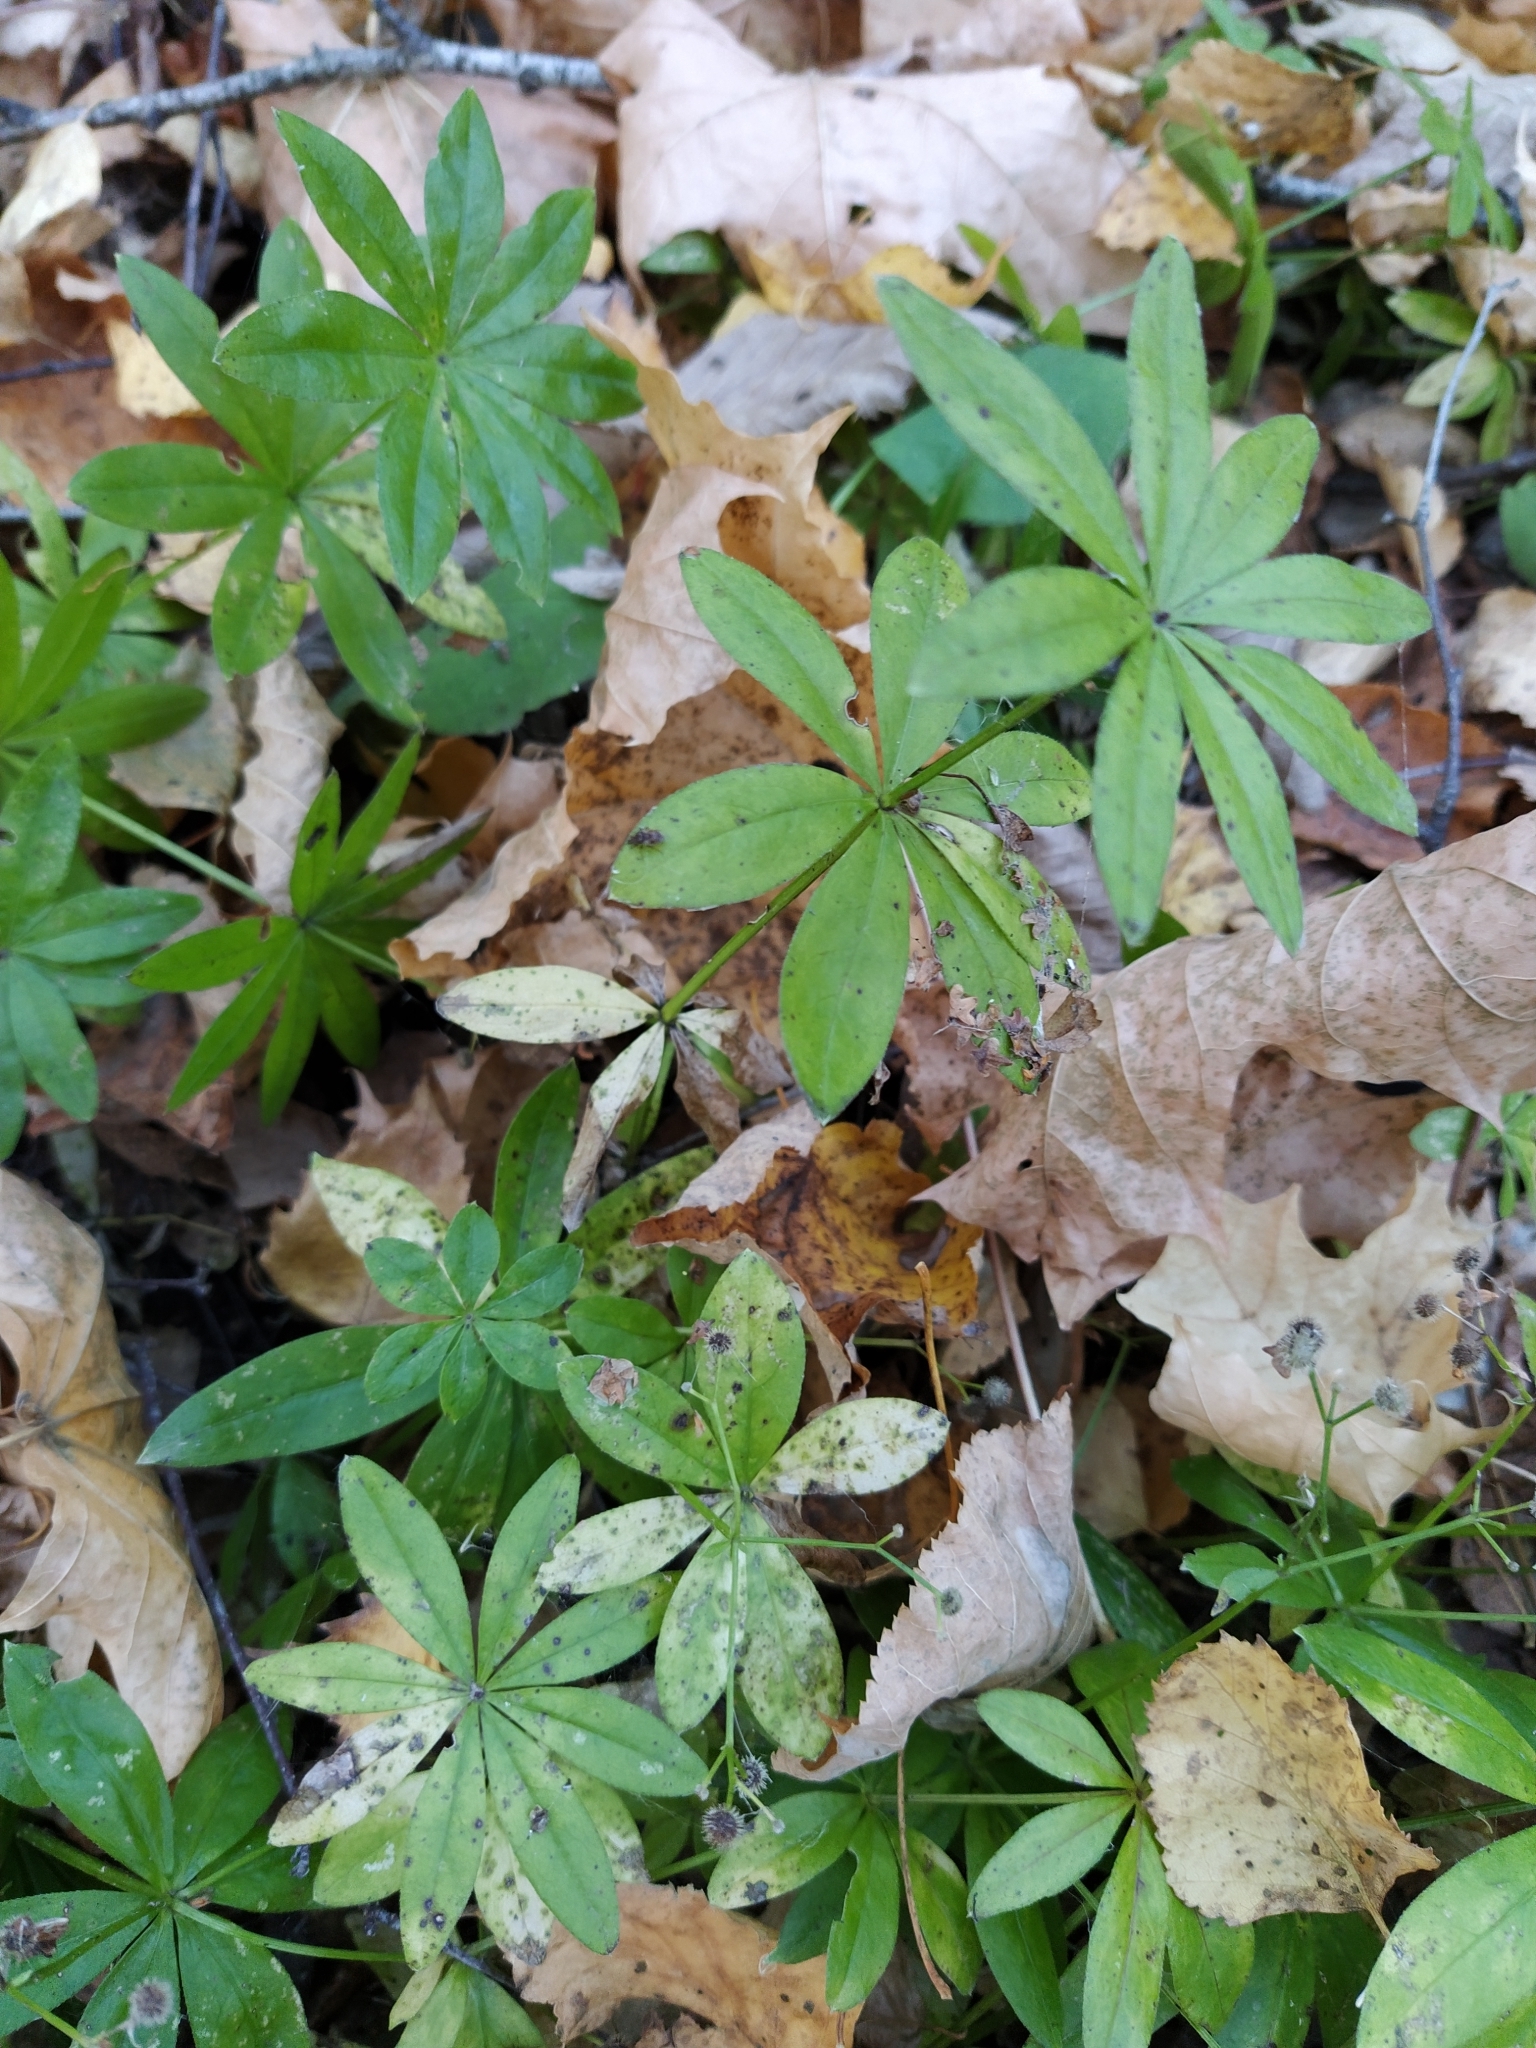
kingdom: Plantae
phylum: Tracheophyta
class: Magnoliopsida
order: Gentianales
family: Rubiaceae
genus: Galium
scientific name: Galium odoratum
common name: Sweet woodruff
